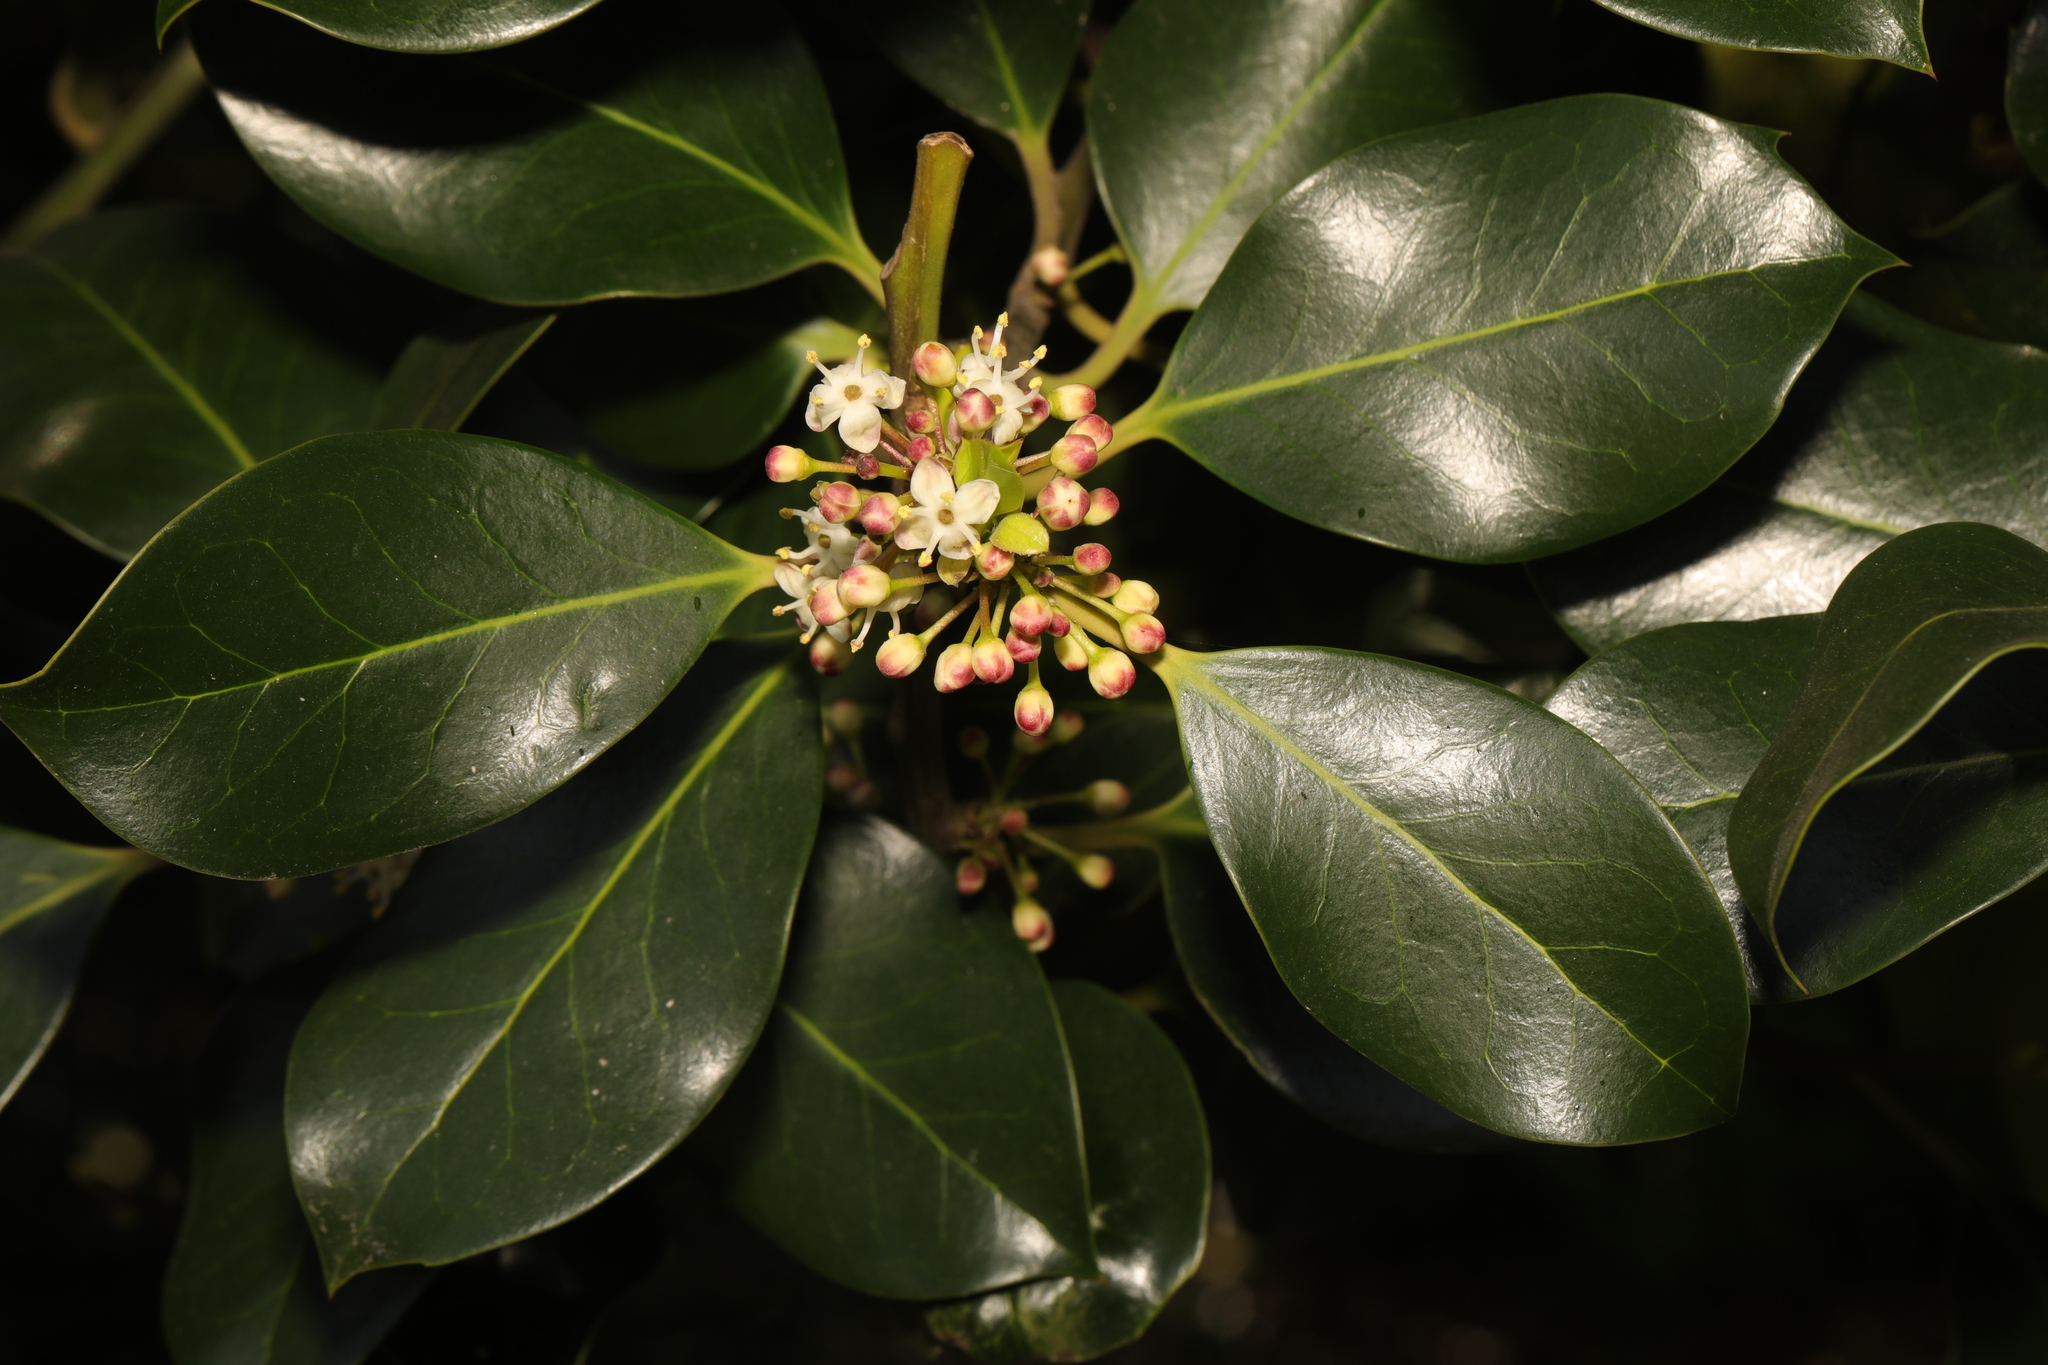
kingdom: Plantae
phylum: Tracheophyta
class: Magnoliopsida
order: Aquifoliales
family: Aquifoliaceae
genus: Ilex
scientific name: Ilex altaclerensis
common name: Highclere holly
